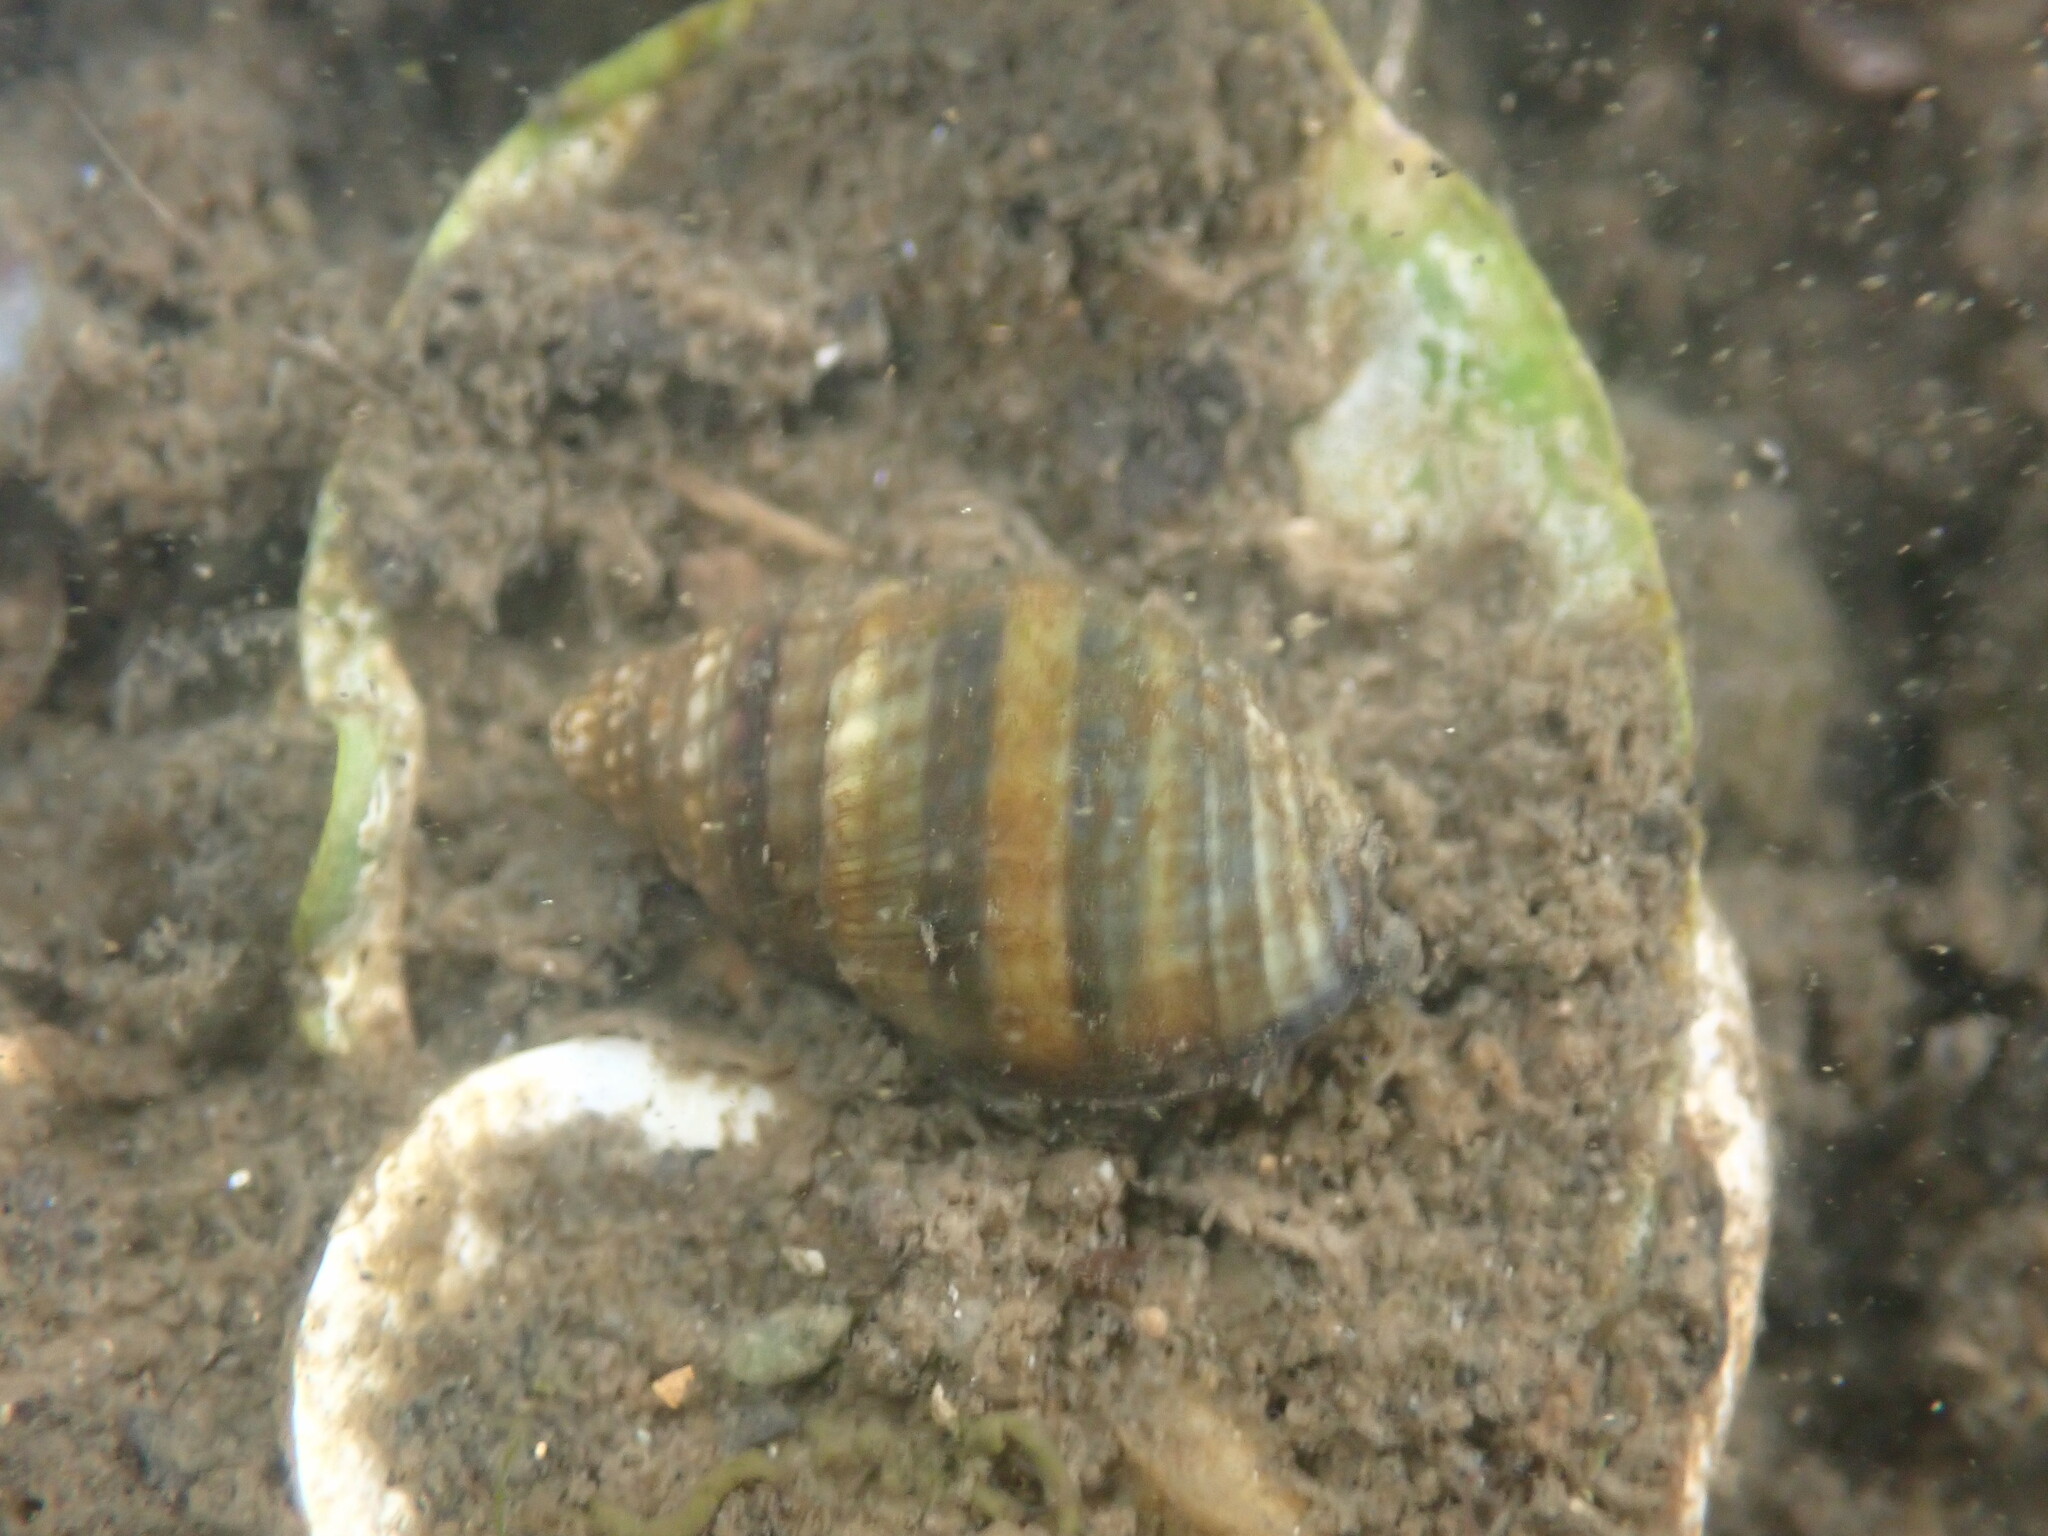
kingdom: Animalia
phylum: Mollusca
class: Gastropoda
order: Neogastropoda
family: Nassariidae
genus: Ilyanassa
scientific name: Ilyanassa obsoleta
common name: Eastern mudsnail
